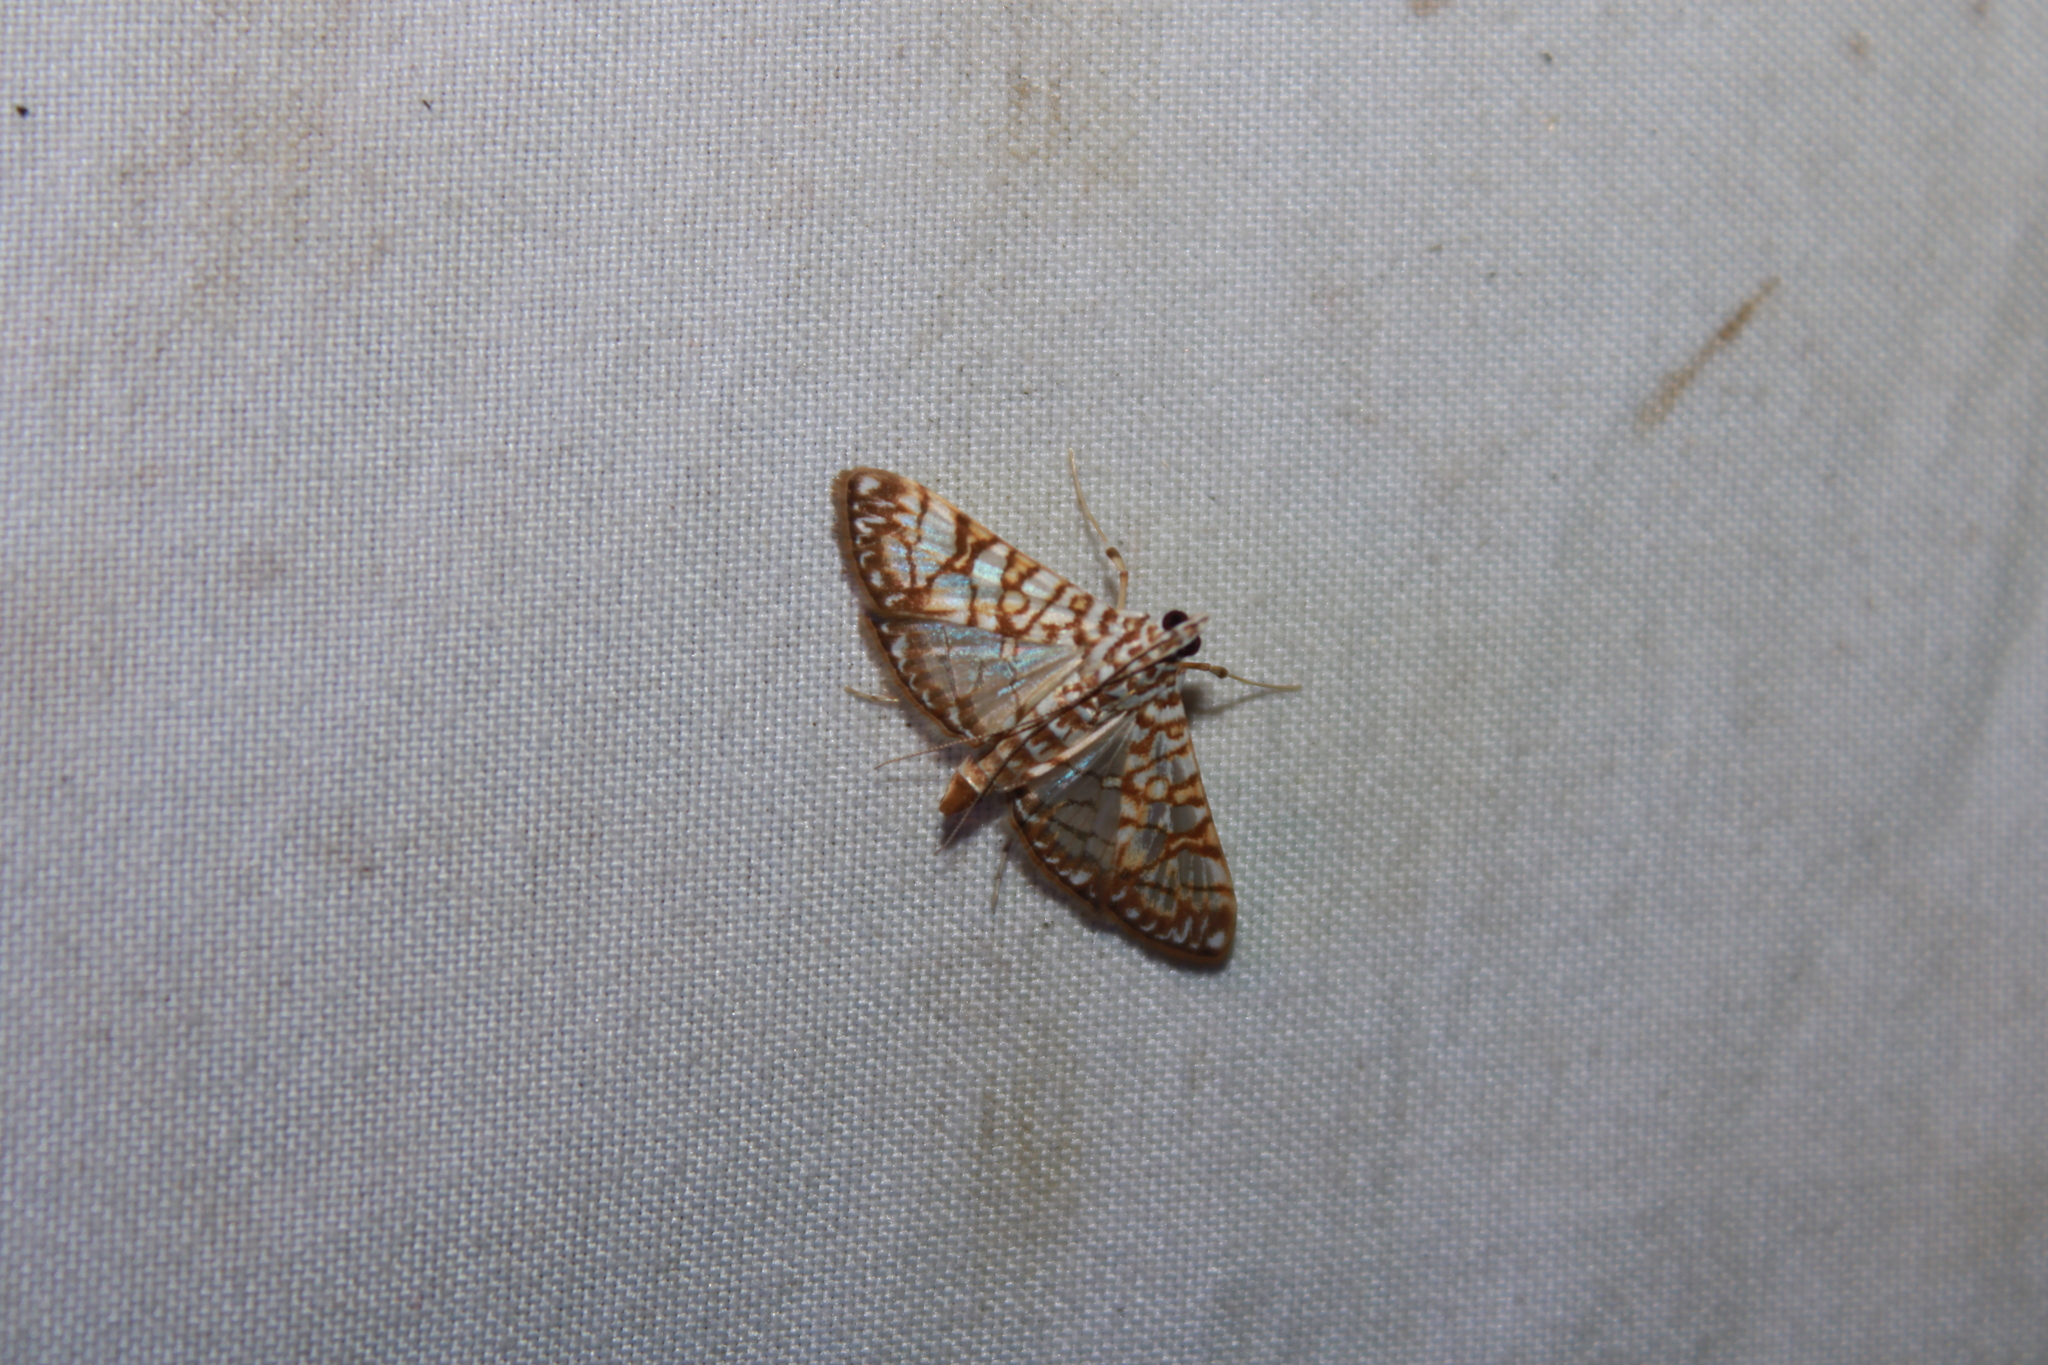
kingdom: Animalia
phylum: Arthropoda
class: Insecta
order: Lepidoptera
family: Crambidae
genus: Synclera
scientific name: Synclera traducalis
